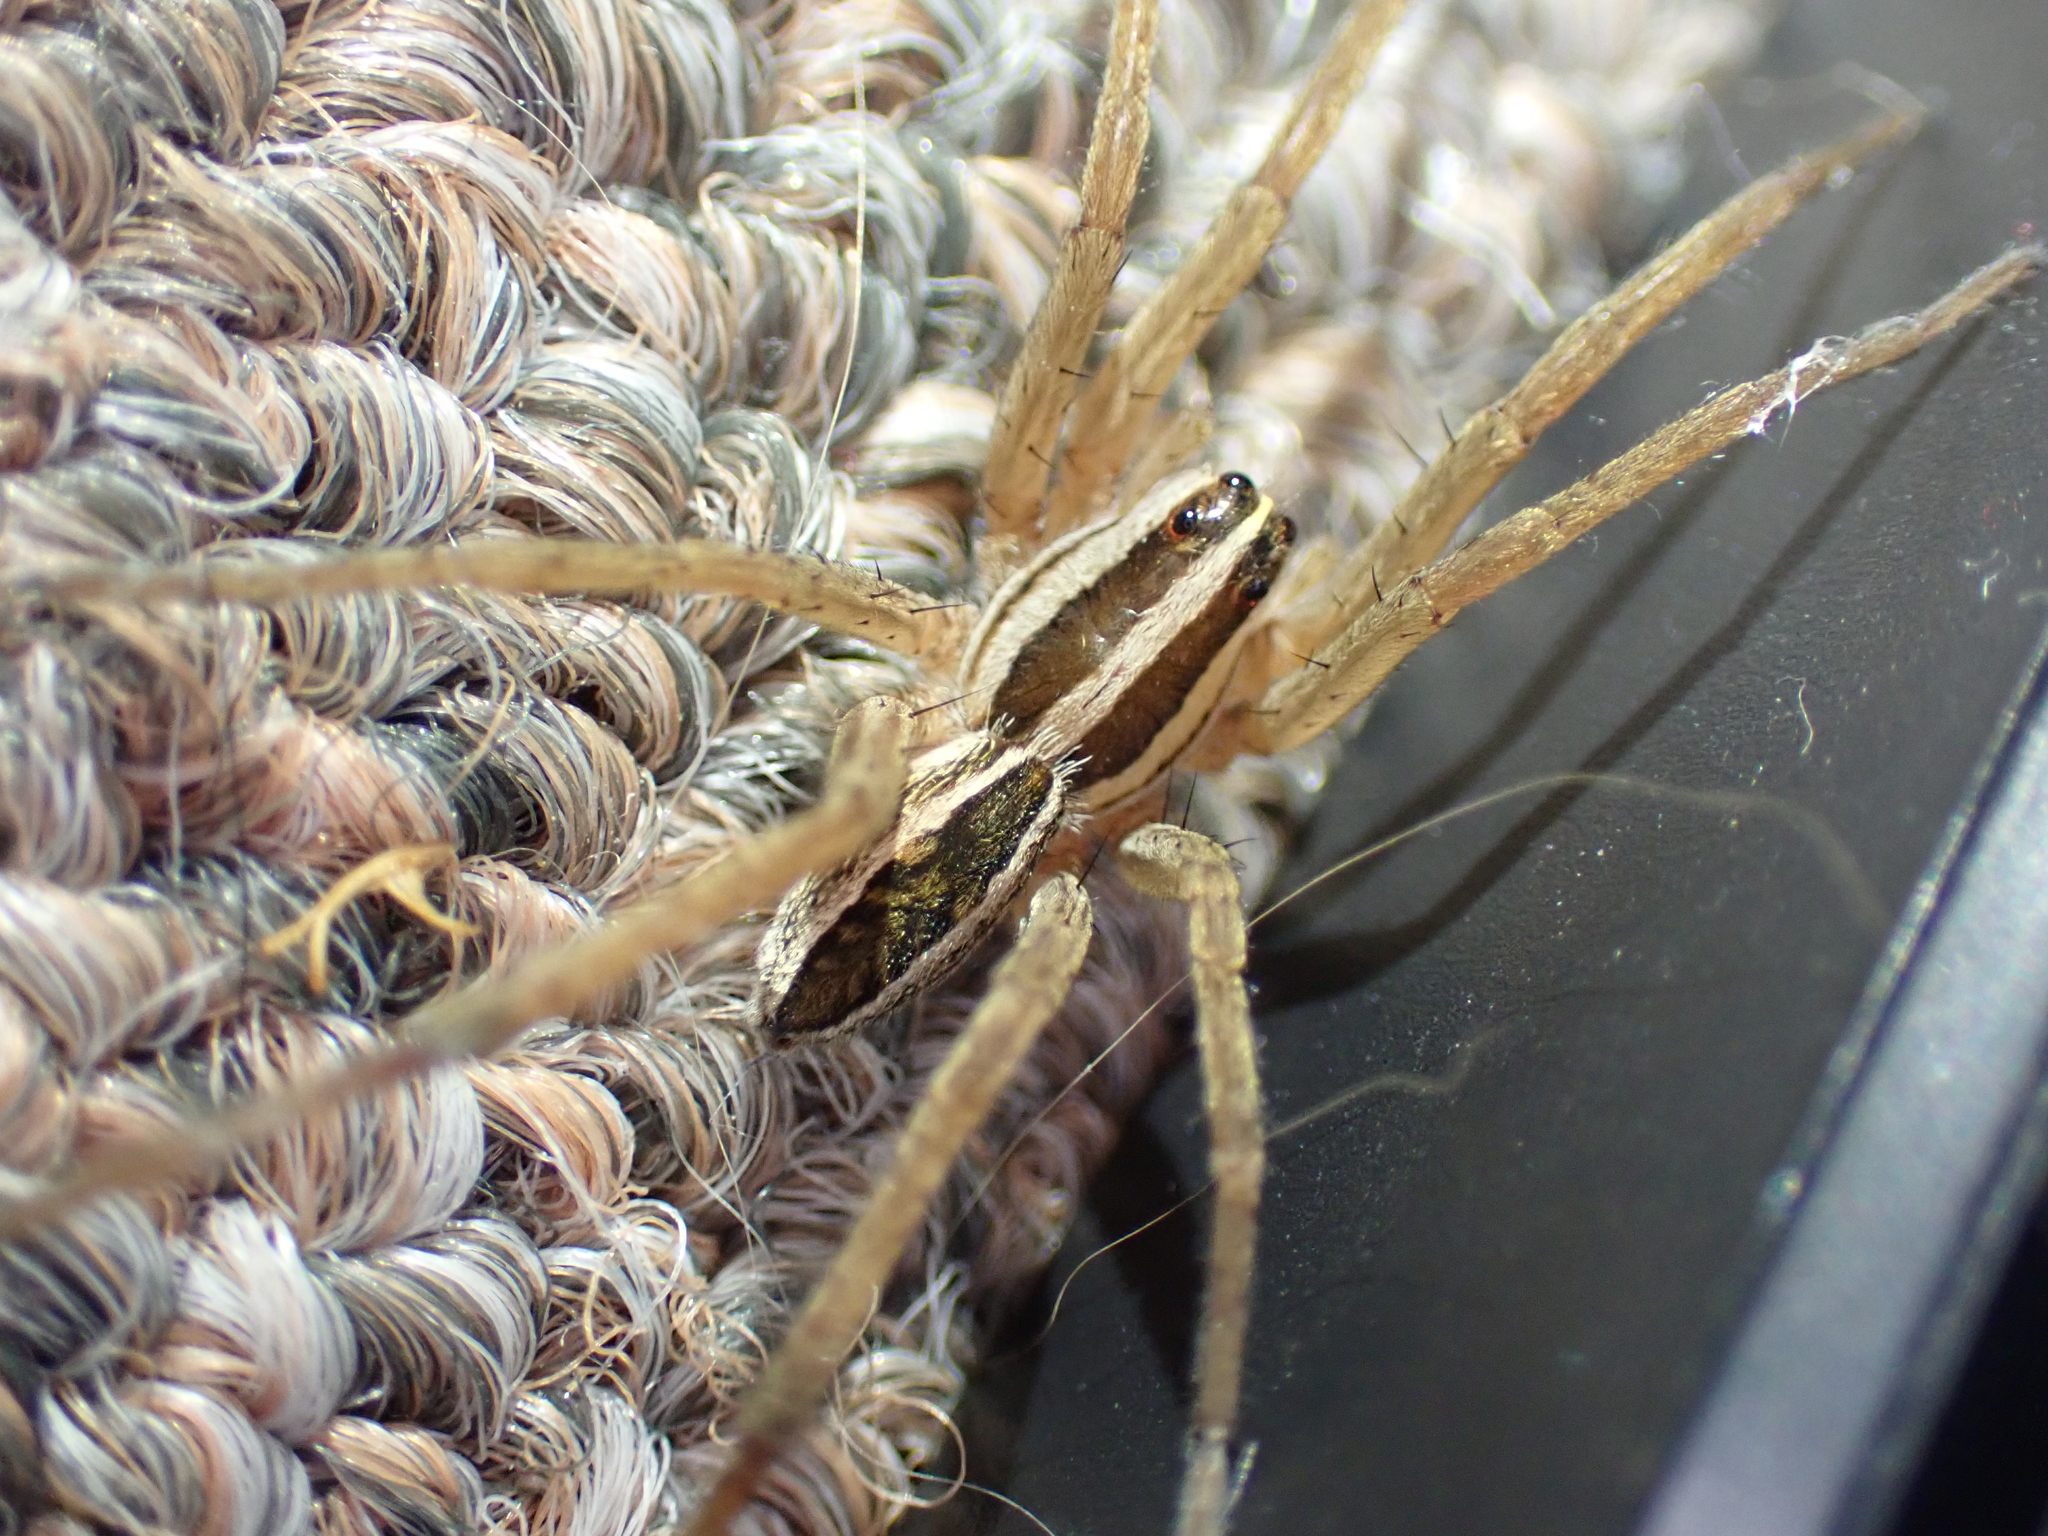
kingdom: Animalia
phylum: Arthropoda
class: Arachnida
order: Araneae
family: Lycosidae
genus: Rabidosa
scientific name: Rabidosa rabida
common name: Rabid wolf spider
